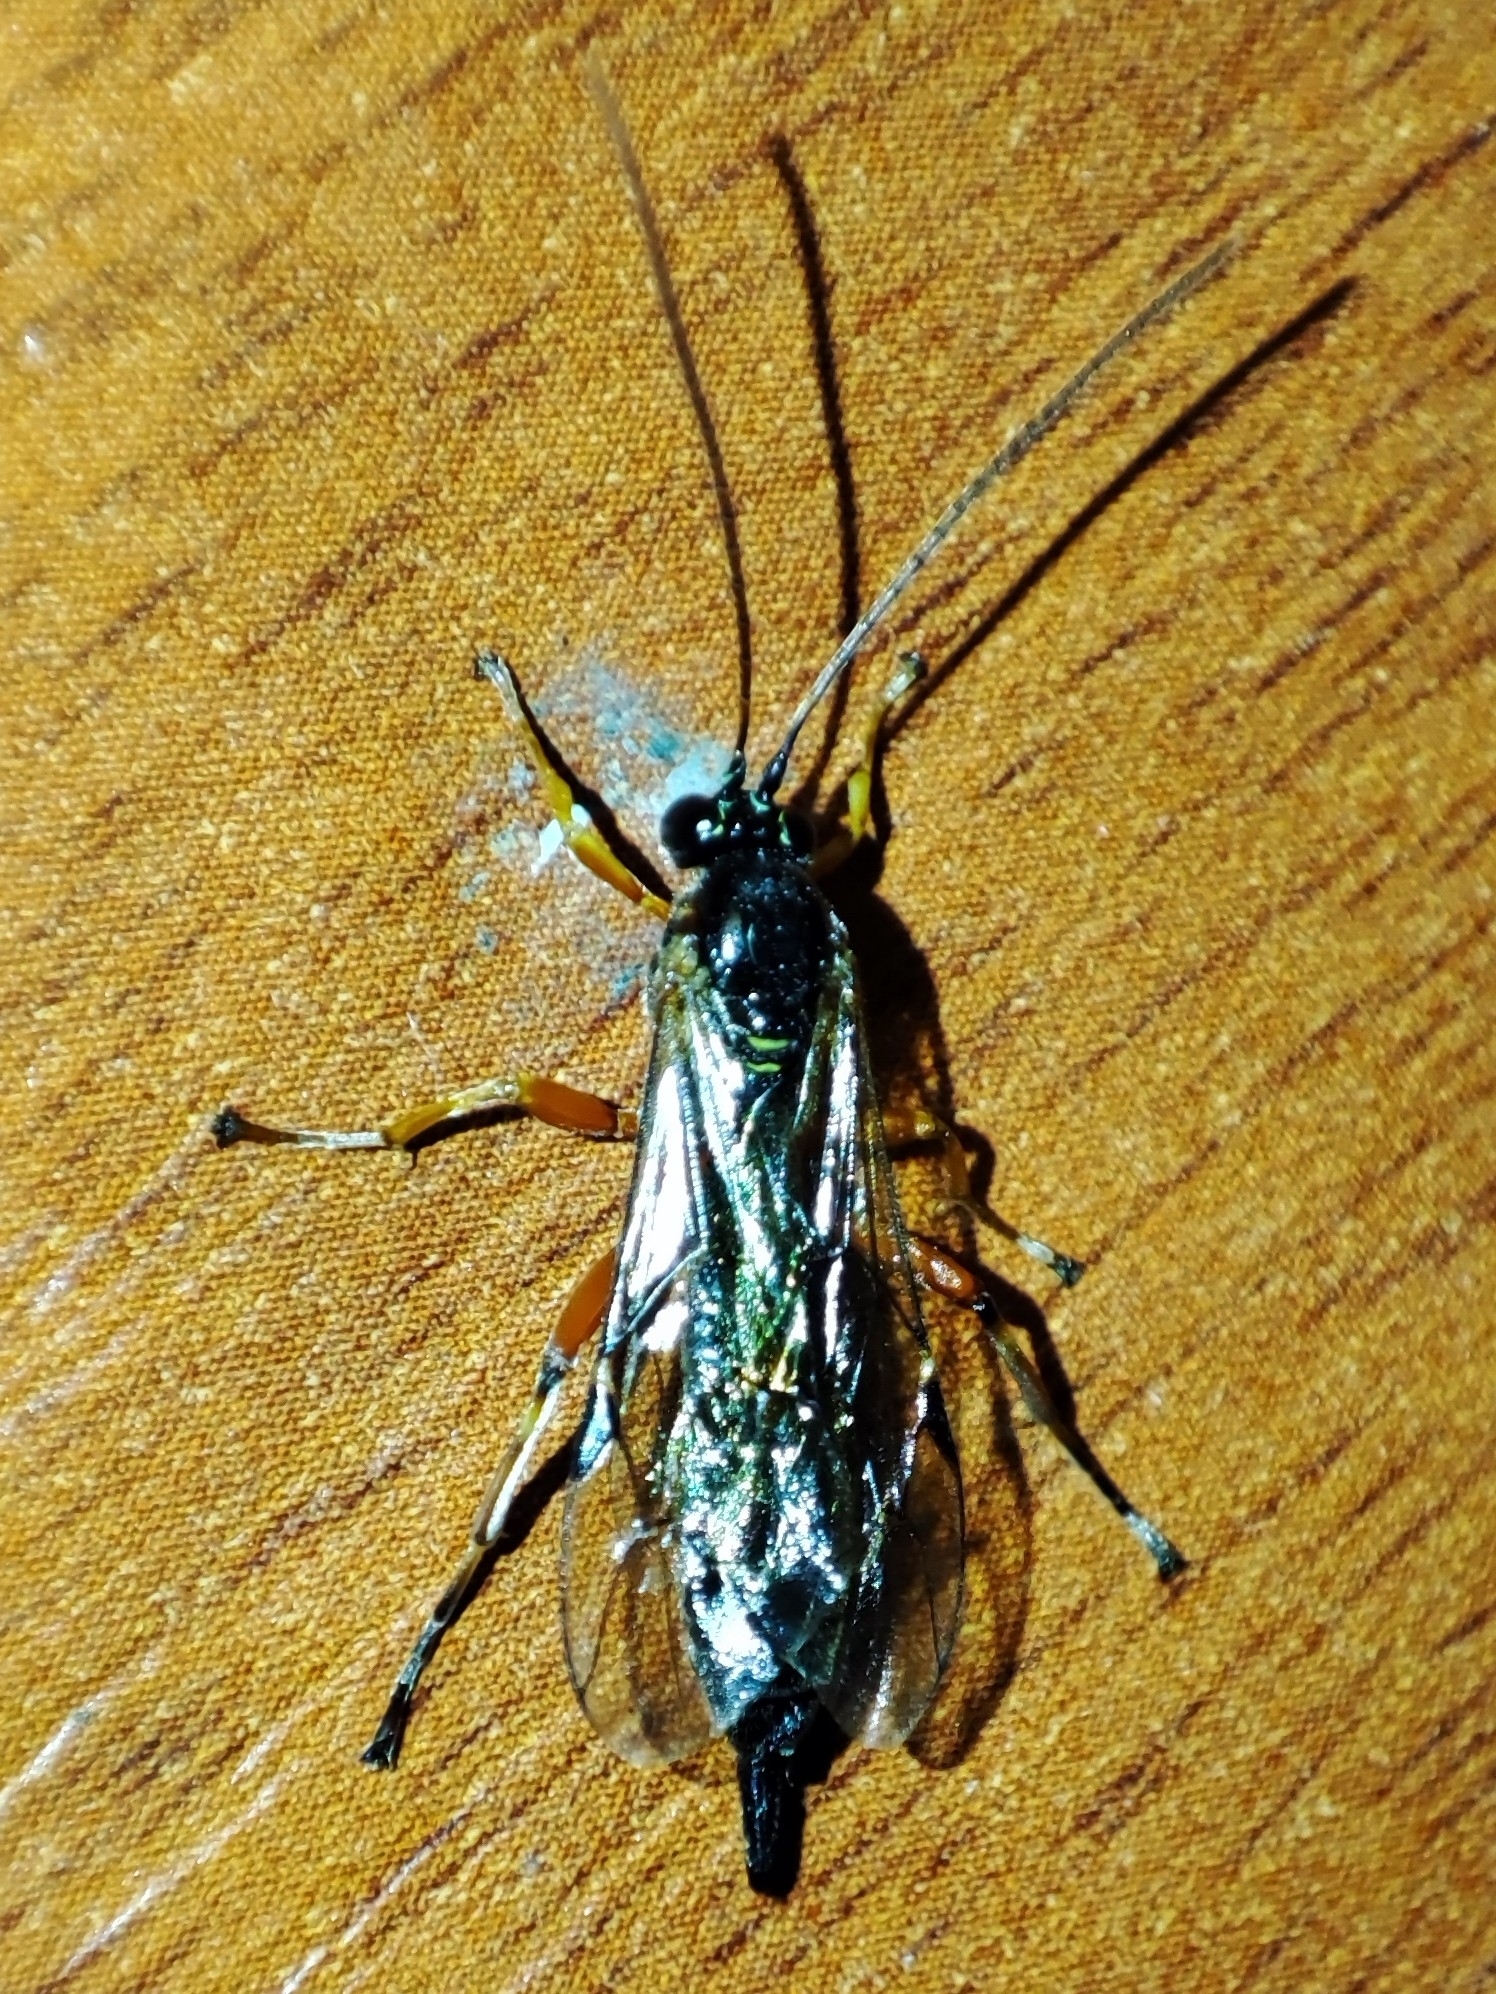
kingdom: Animalia
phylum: Arthropoda
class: Insecta
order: Hymenoptera
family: Ichneumonidae
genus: Apechthis
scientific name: Apechthis quadridentata
